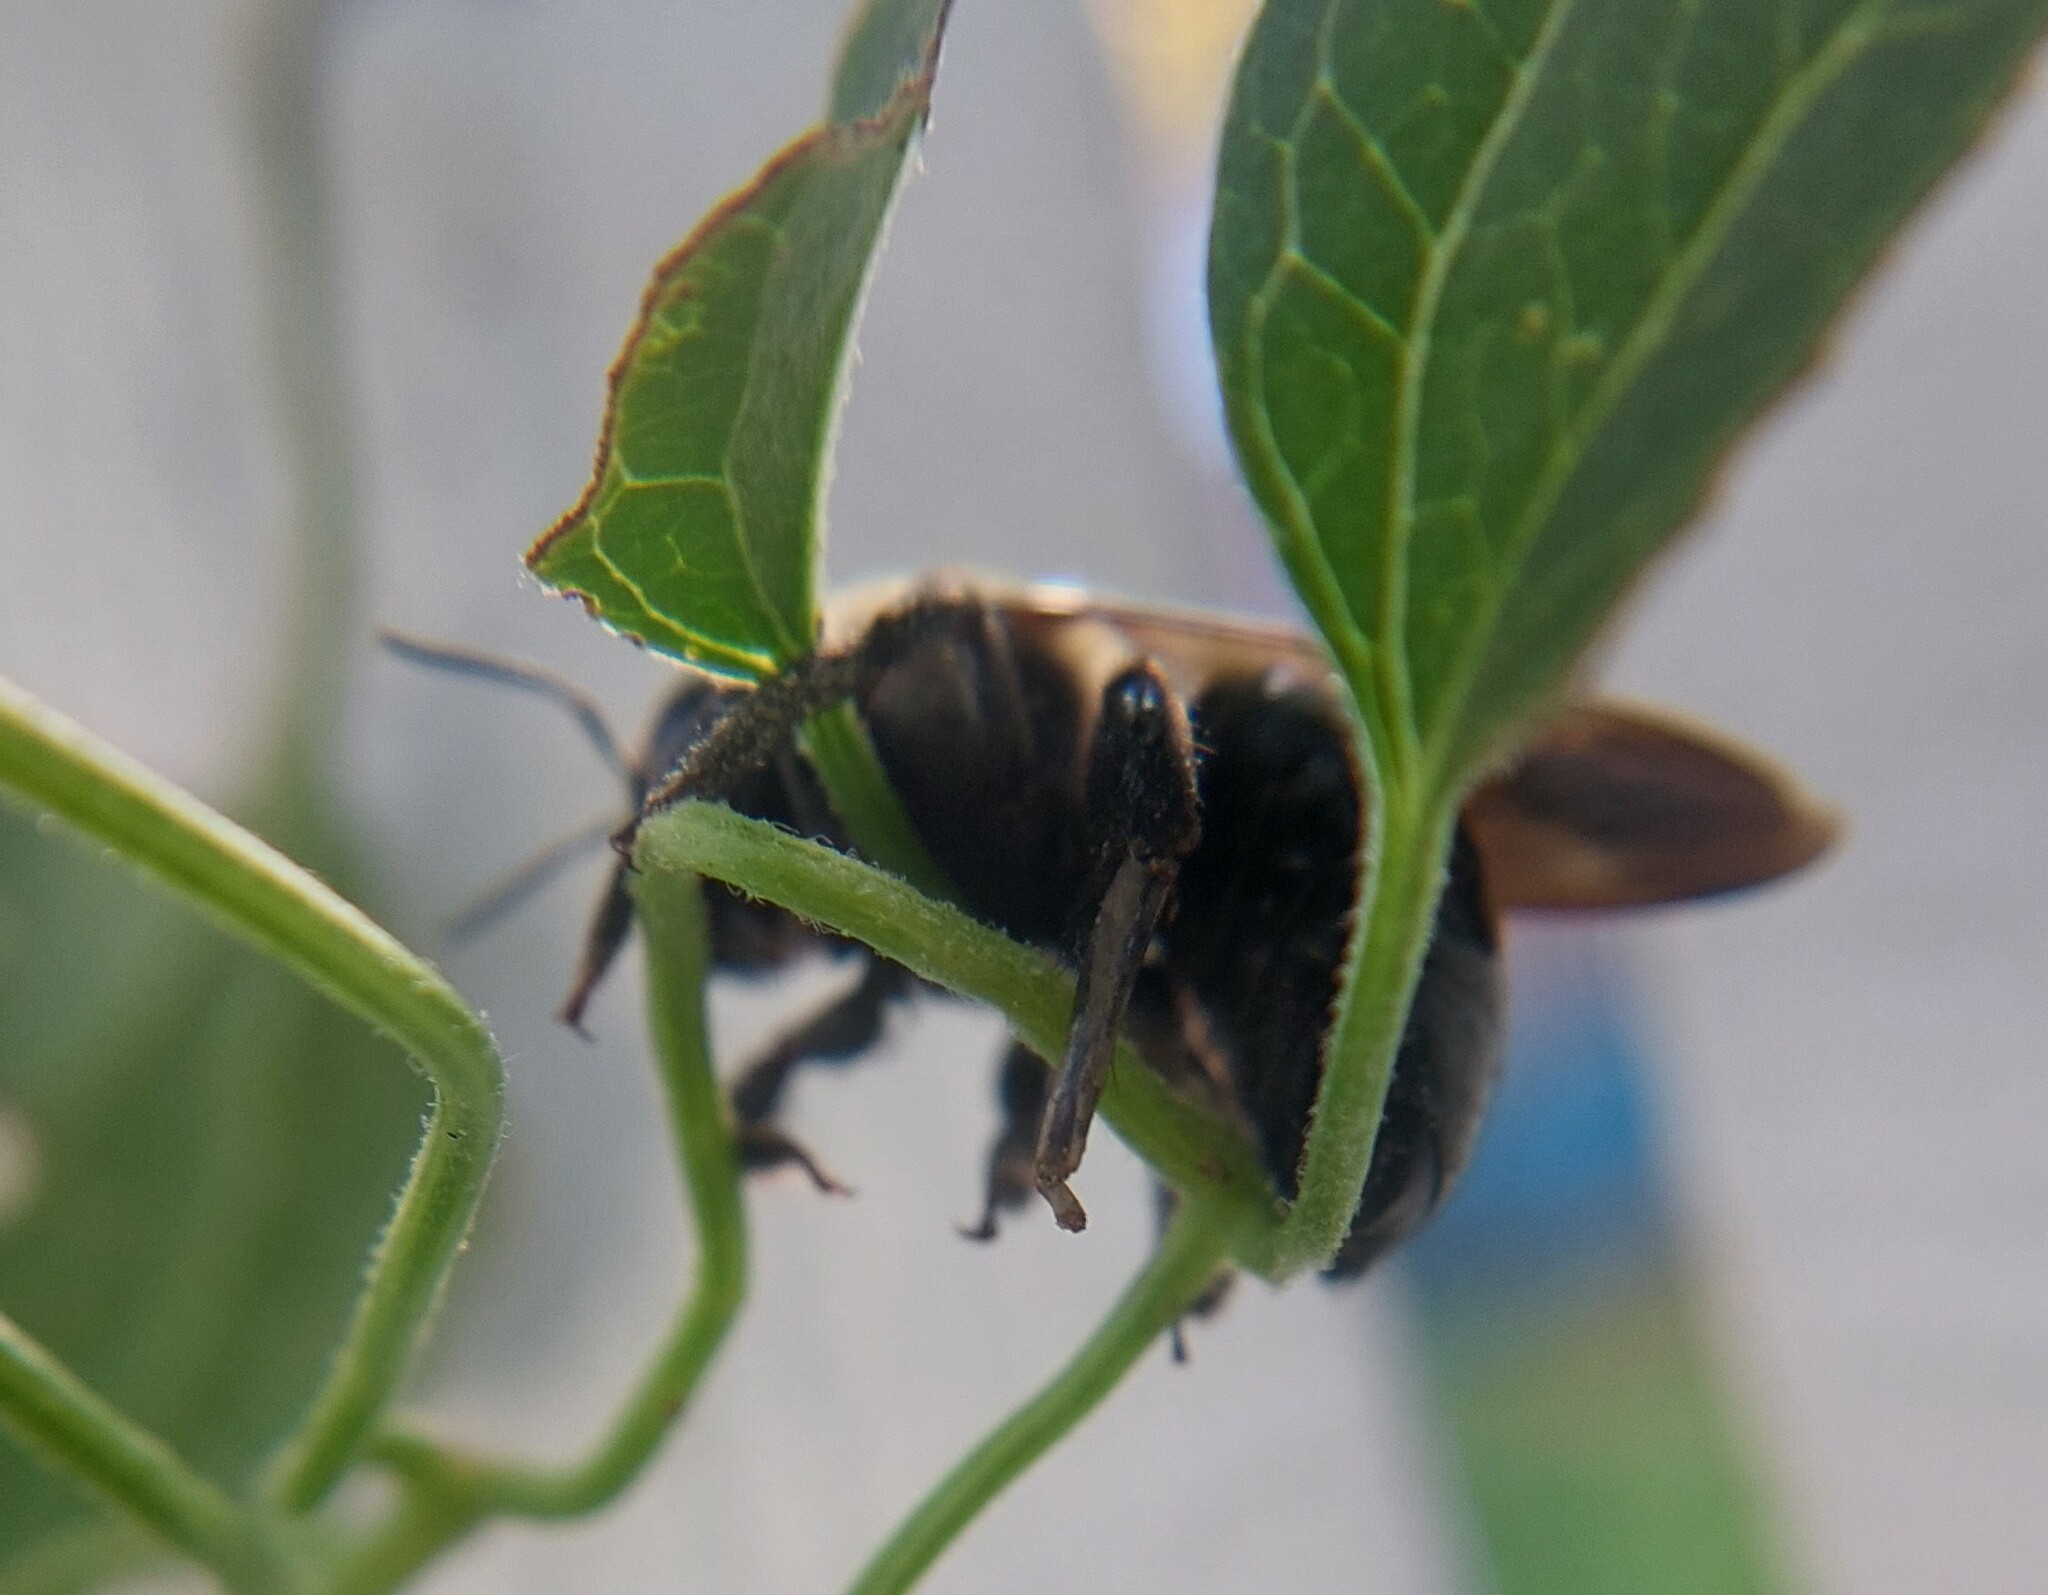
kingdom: Animalia
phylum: Arthropoda
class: Insecta
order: Hymenoptera
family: Apidae
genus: Xylocopa
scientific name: Xylocopa virginica
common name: Carpenter bee
